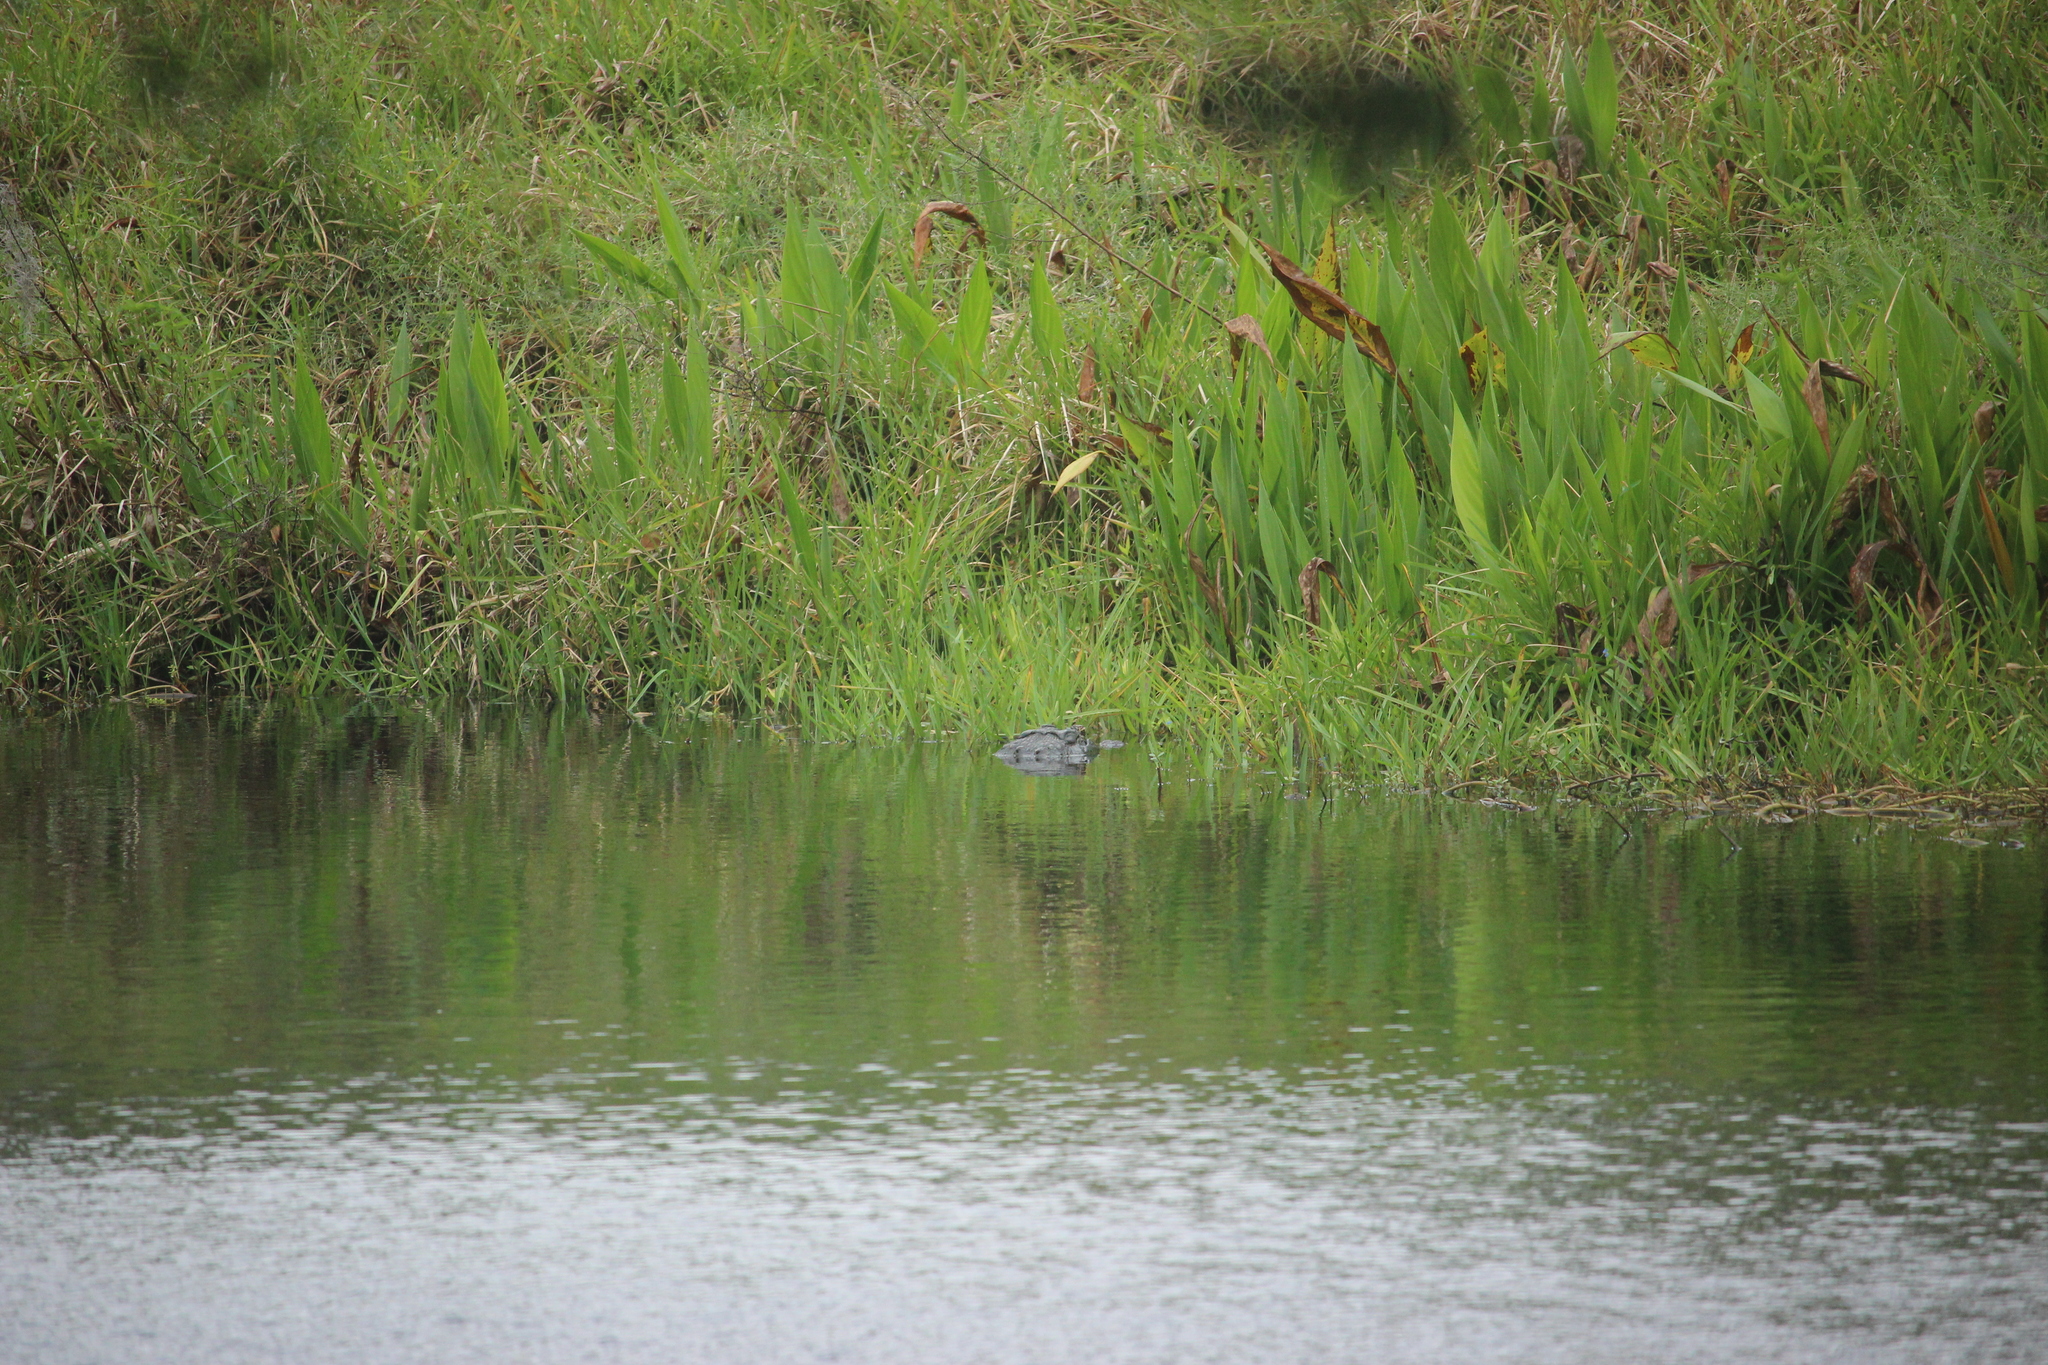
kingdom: Animalia
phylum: Chordata
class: Crocodylia
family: Alligatoridae
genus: Alligator
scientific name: Alligator mississippiensis
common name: American alligator
